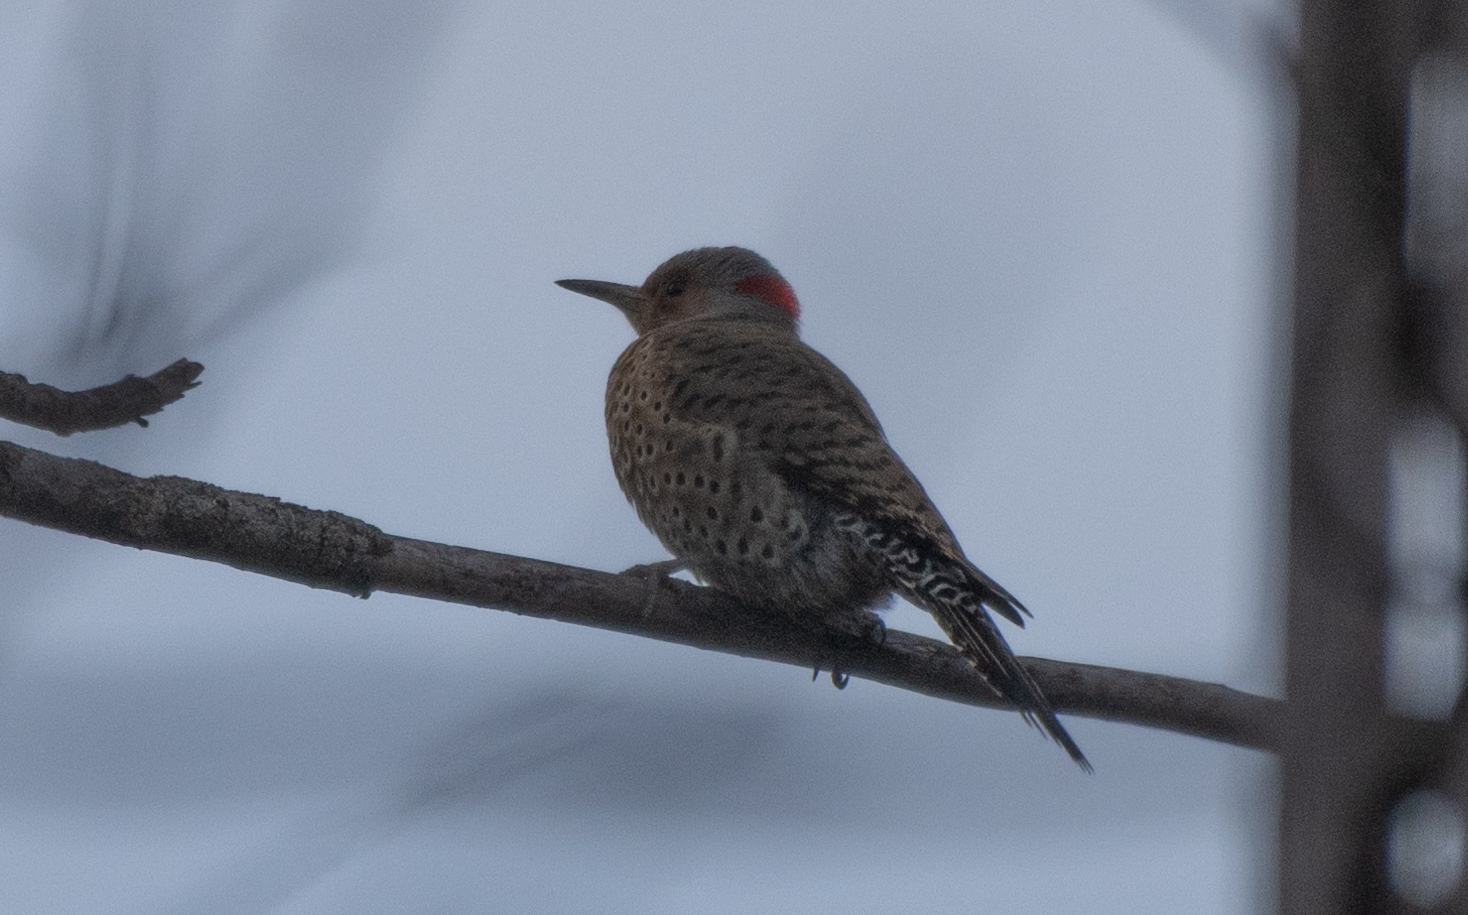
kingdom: Animalia
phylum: Chordata
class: Aves
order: Piciformes
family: Picidae
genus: Colaptes
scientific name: Colaptes auratus
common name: Northern flicker
